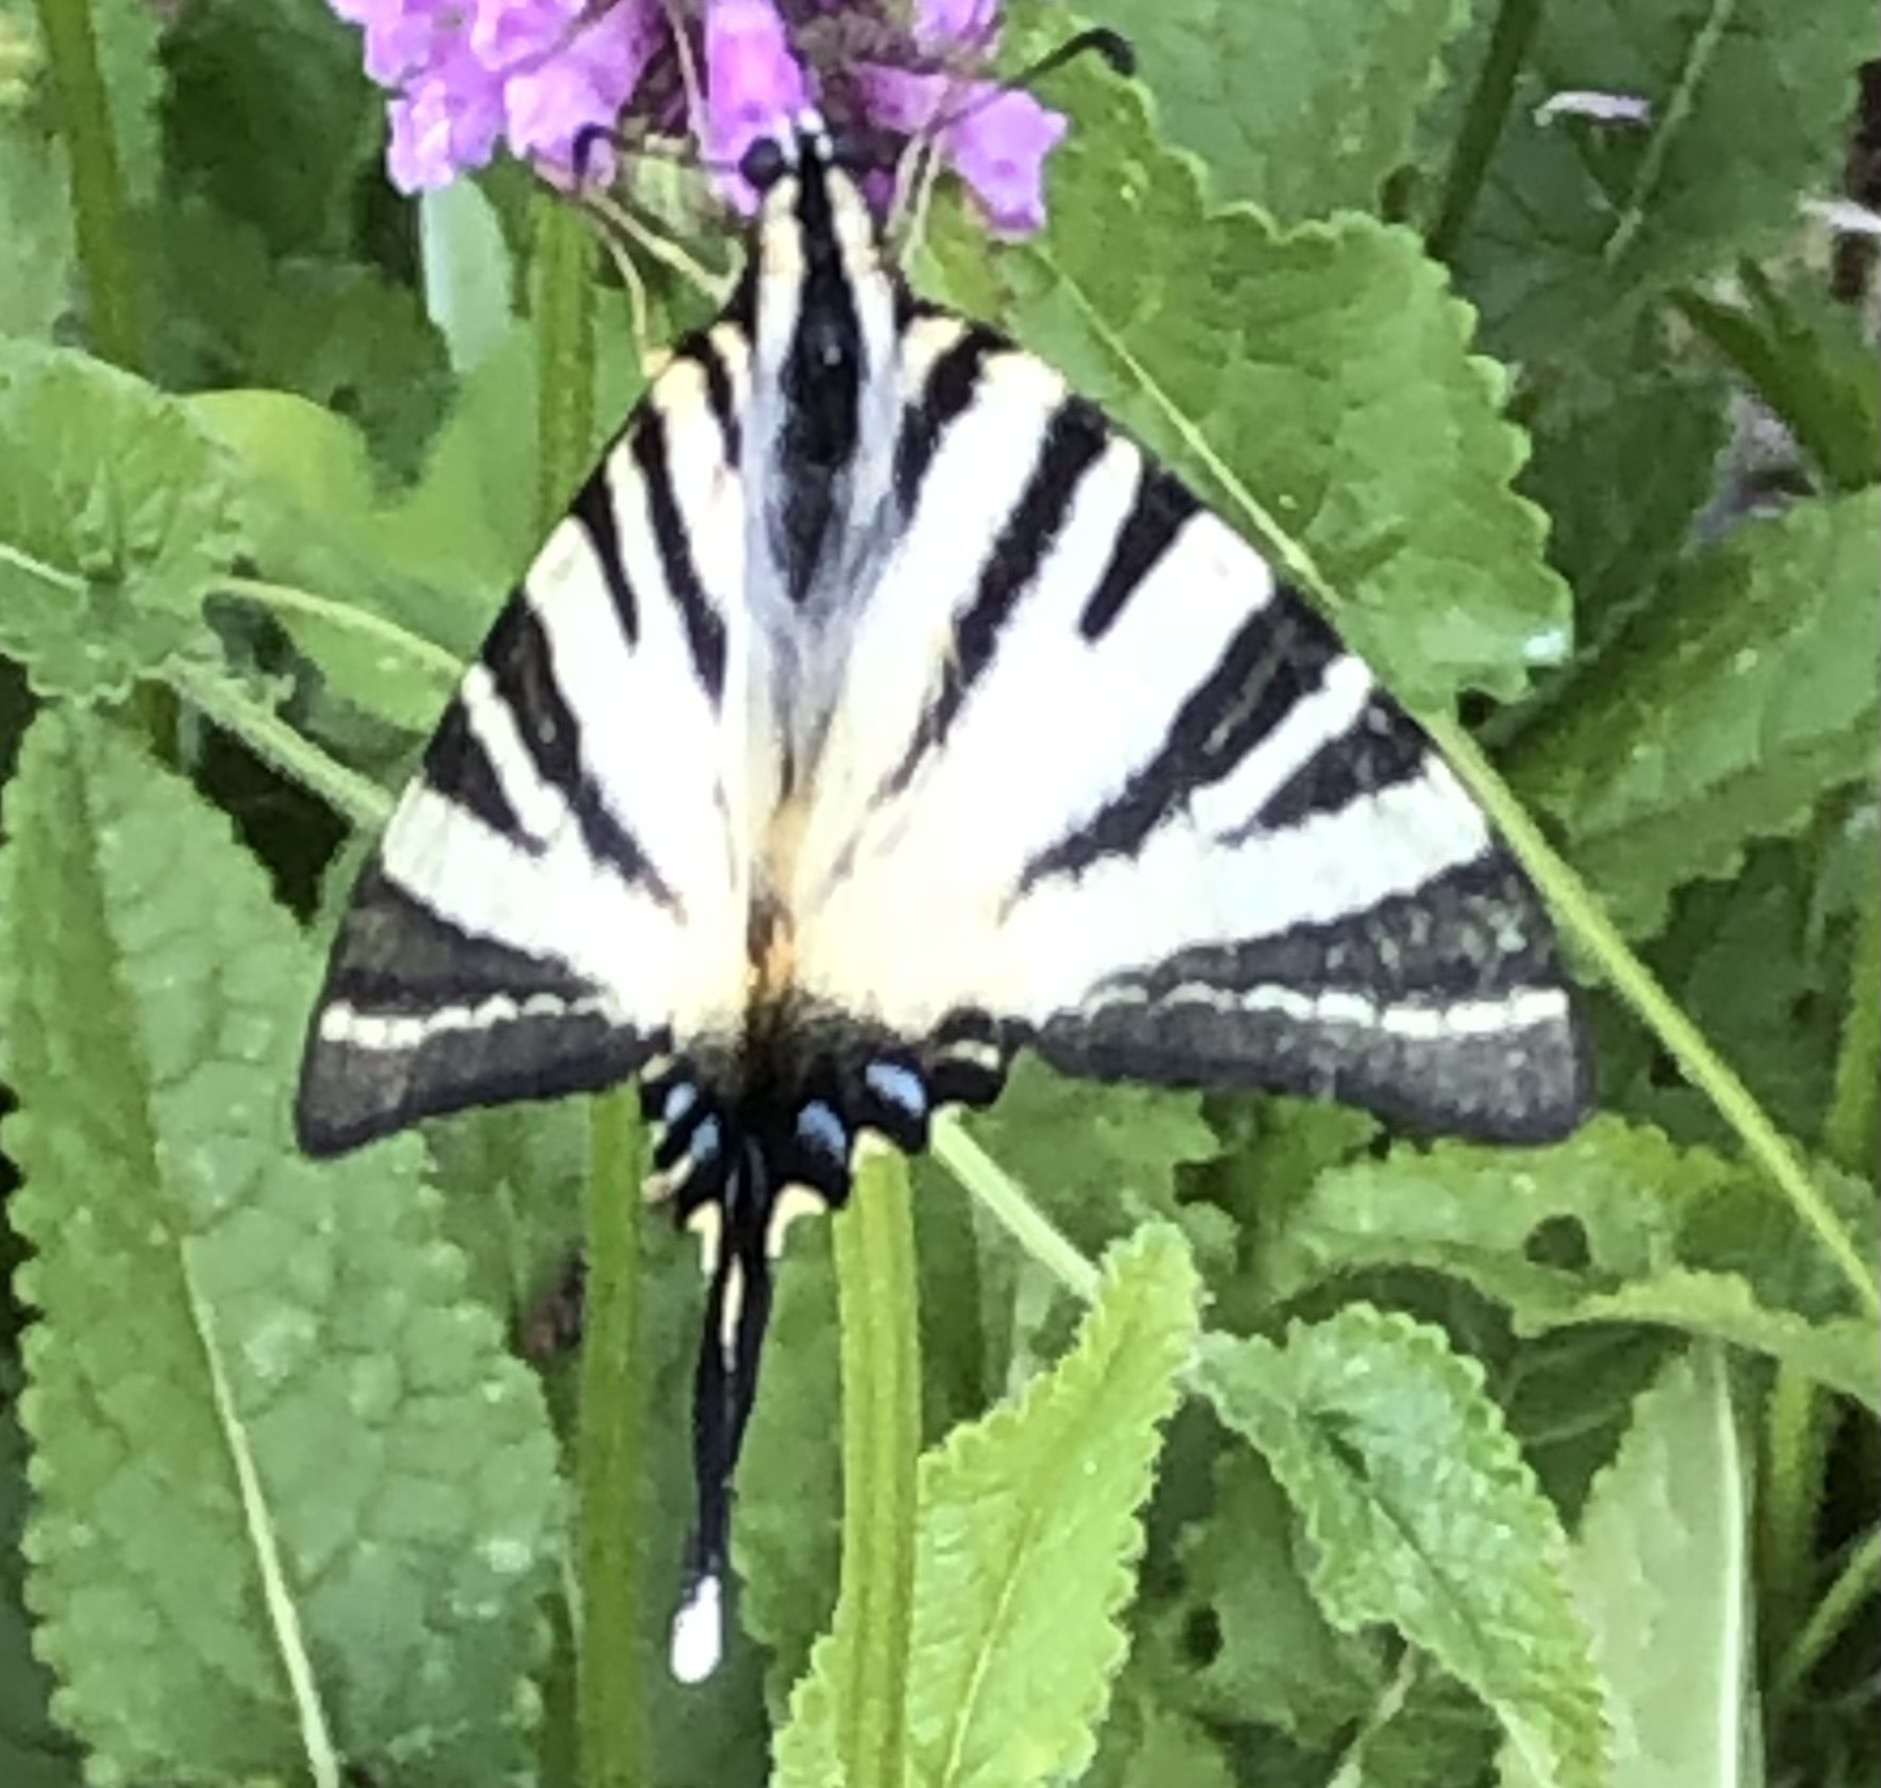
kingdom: Animalia
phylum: Arthropoda
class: Insecta
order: Lepidoptera
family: Papilionidae
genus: Iphiclides
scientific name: Iphiclides podalirius
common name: Scarce swallowtail
